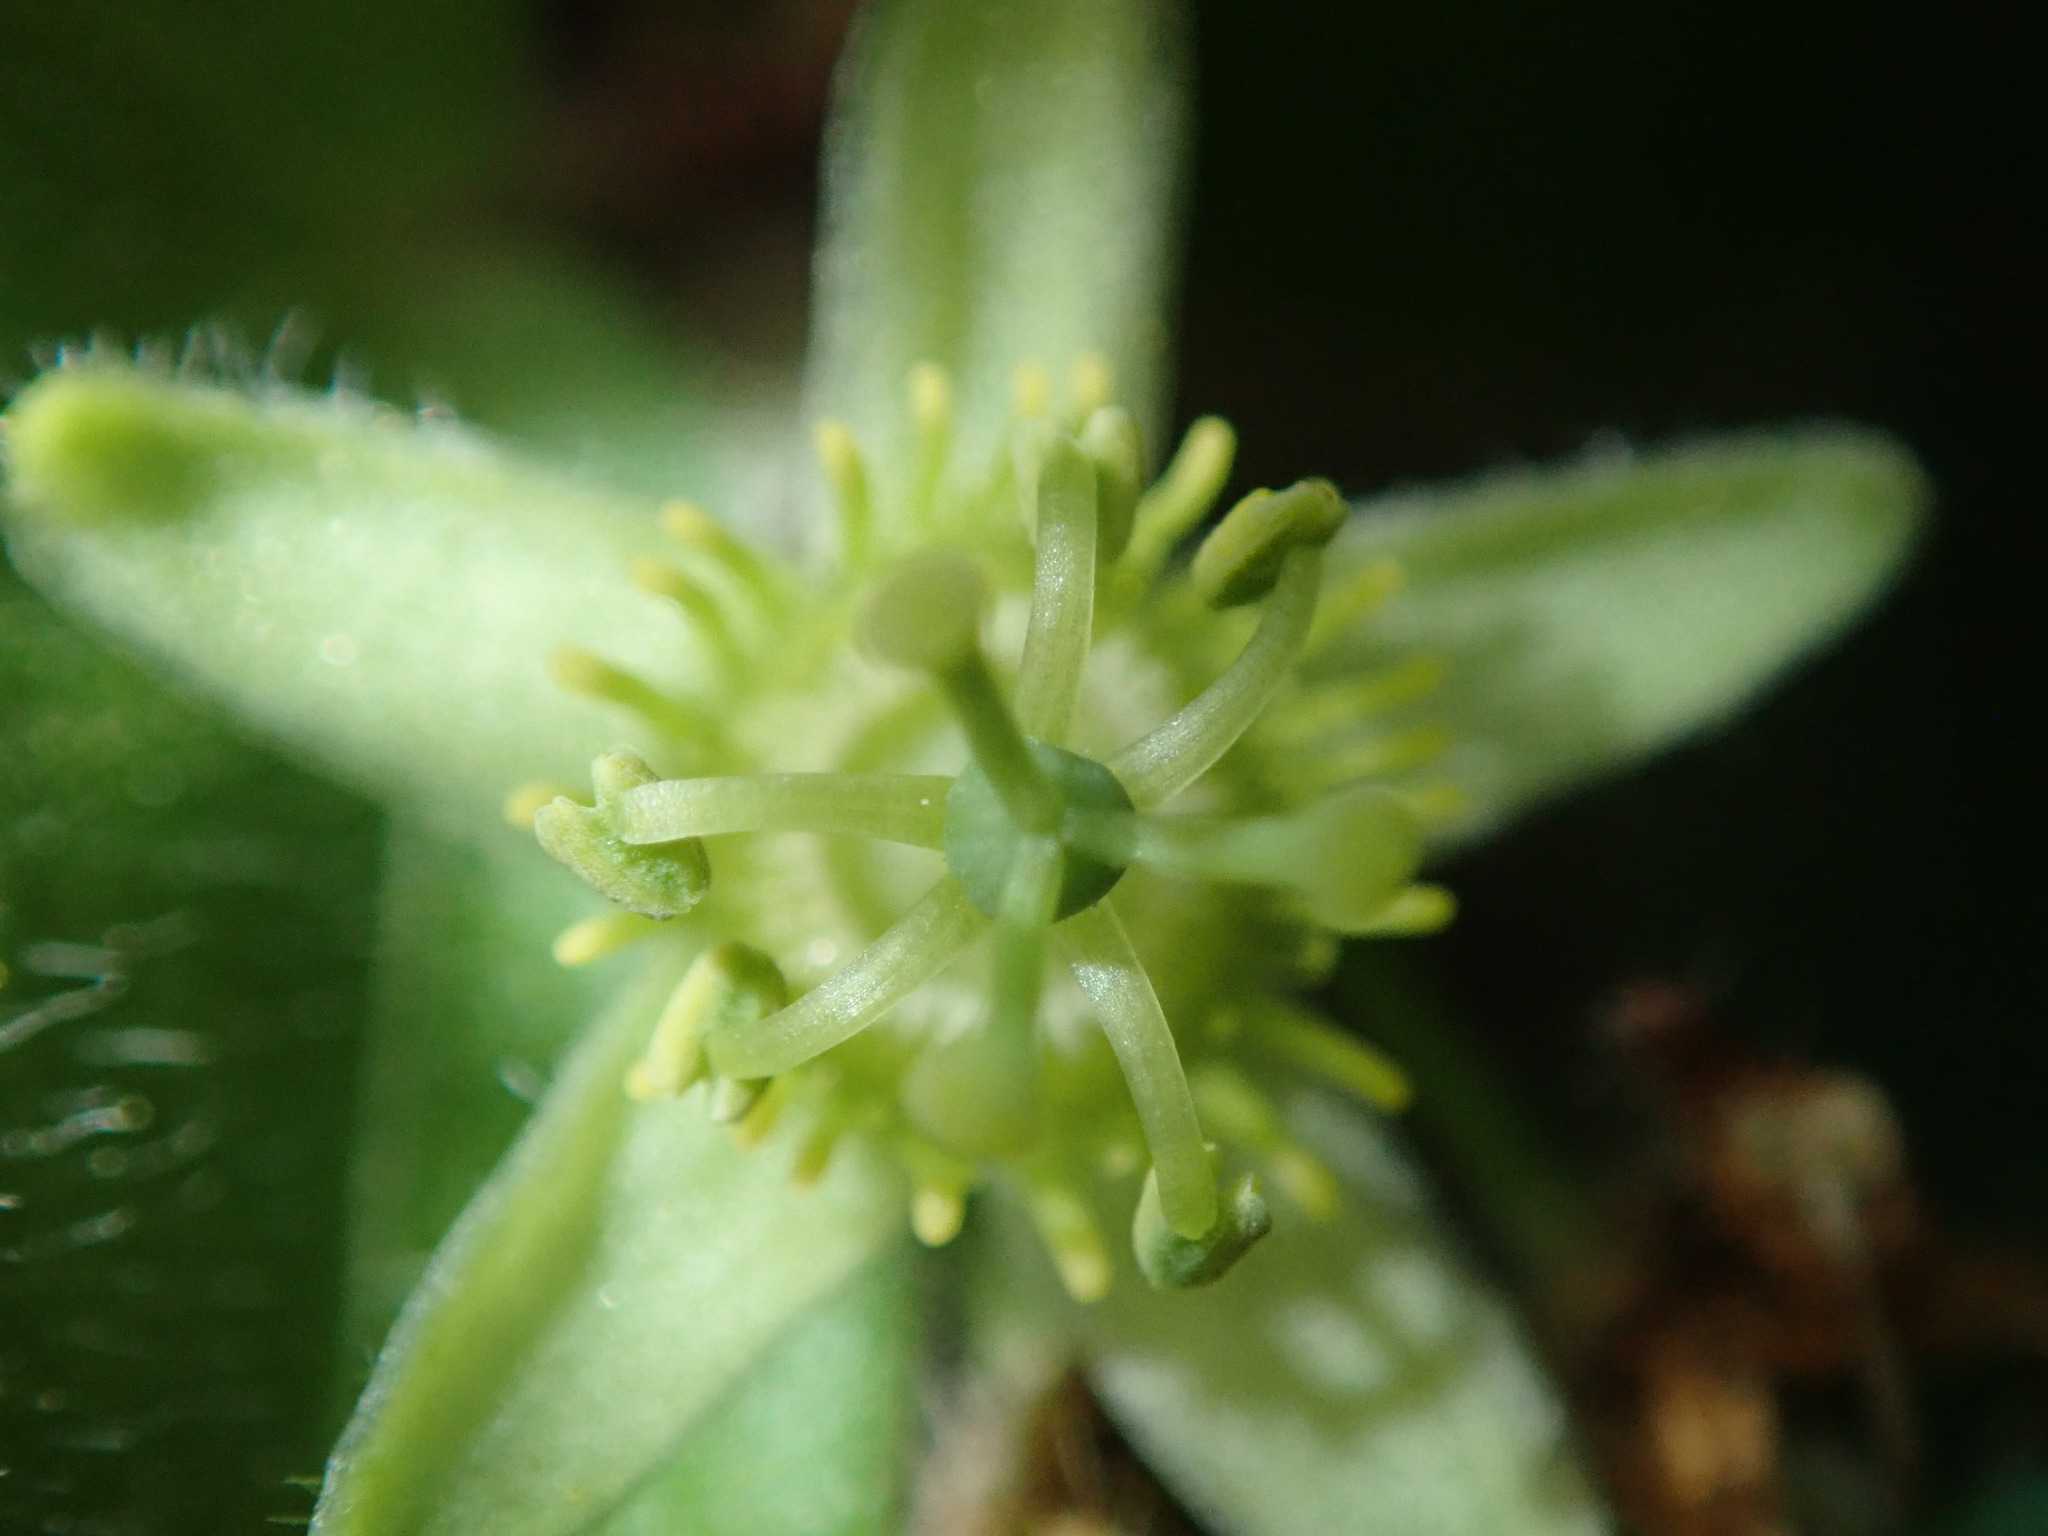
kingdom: Plantae
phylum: Tracheophyta
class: Magnoliopsida
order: Malpighiales
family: Passifloraceae
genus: Passiflora
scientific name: Passiflora suberosa
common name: Wild passionfruit
